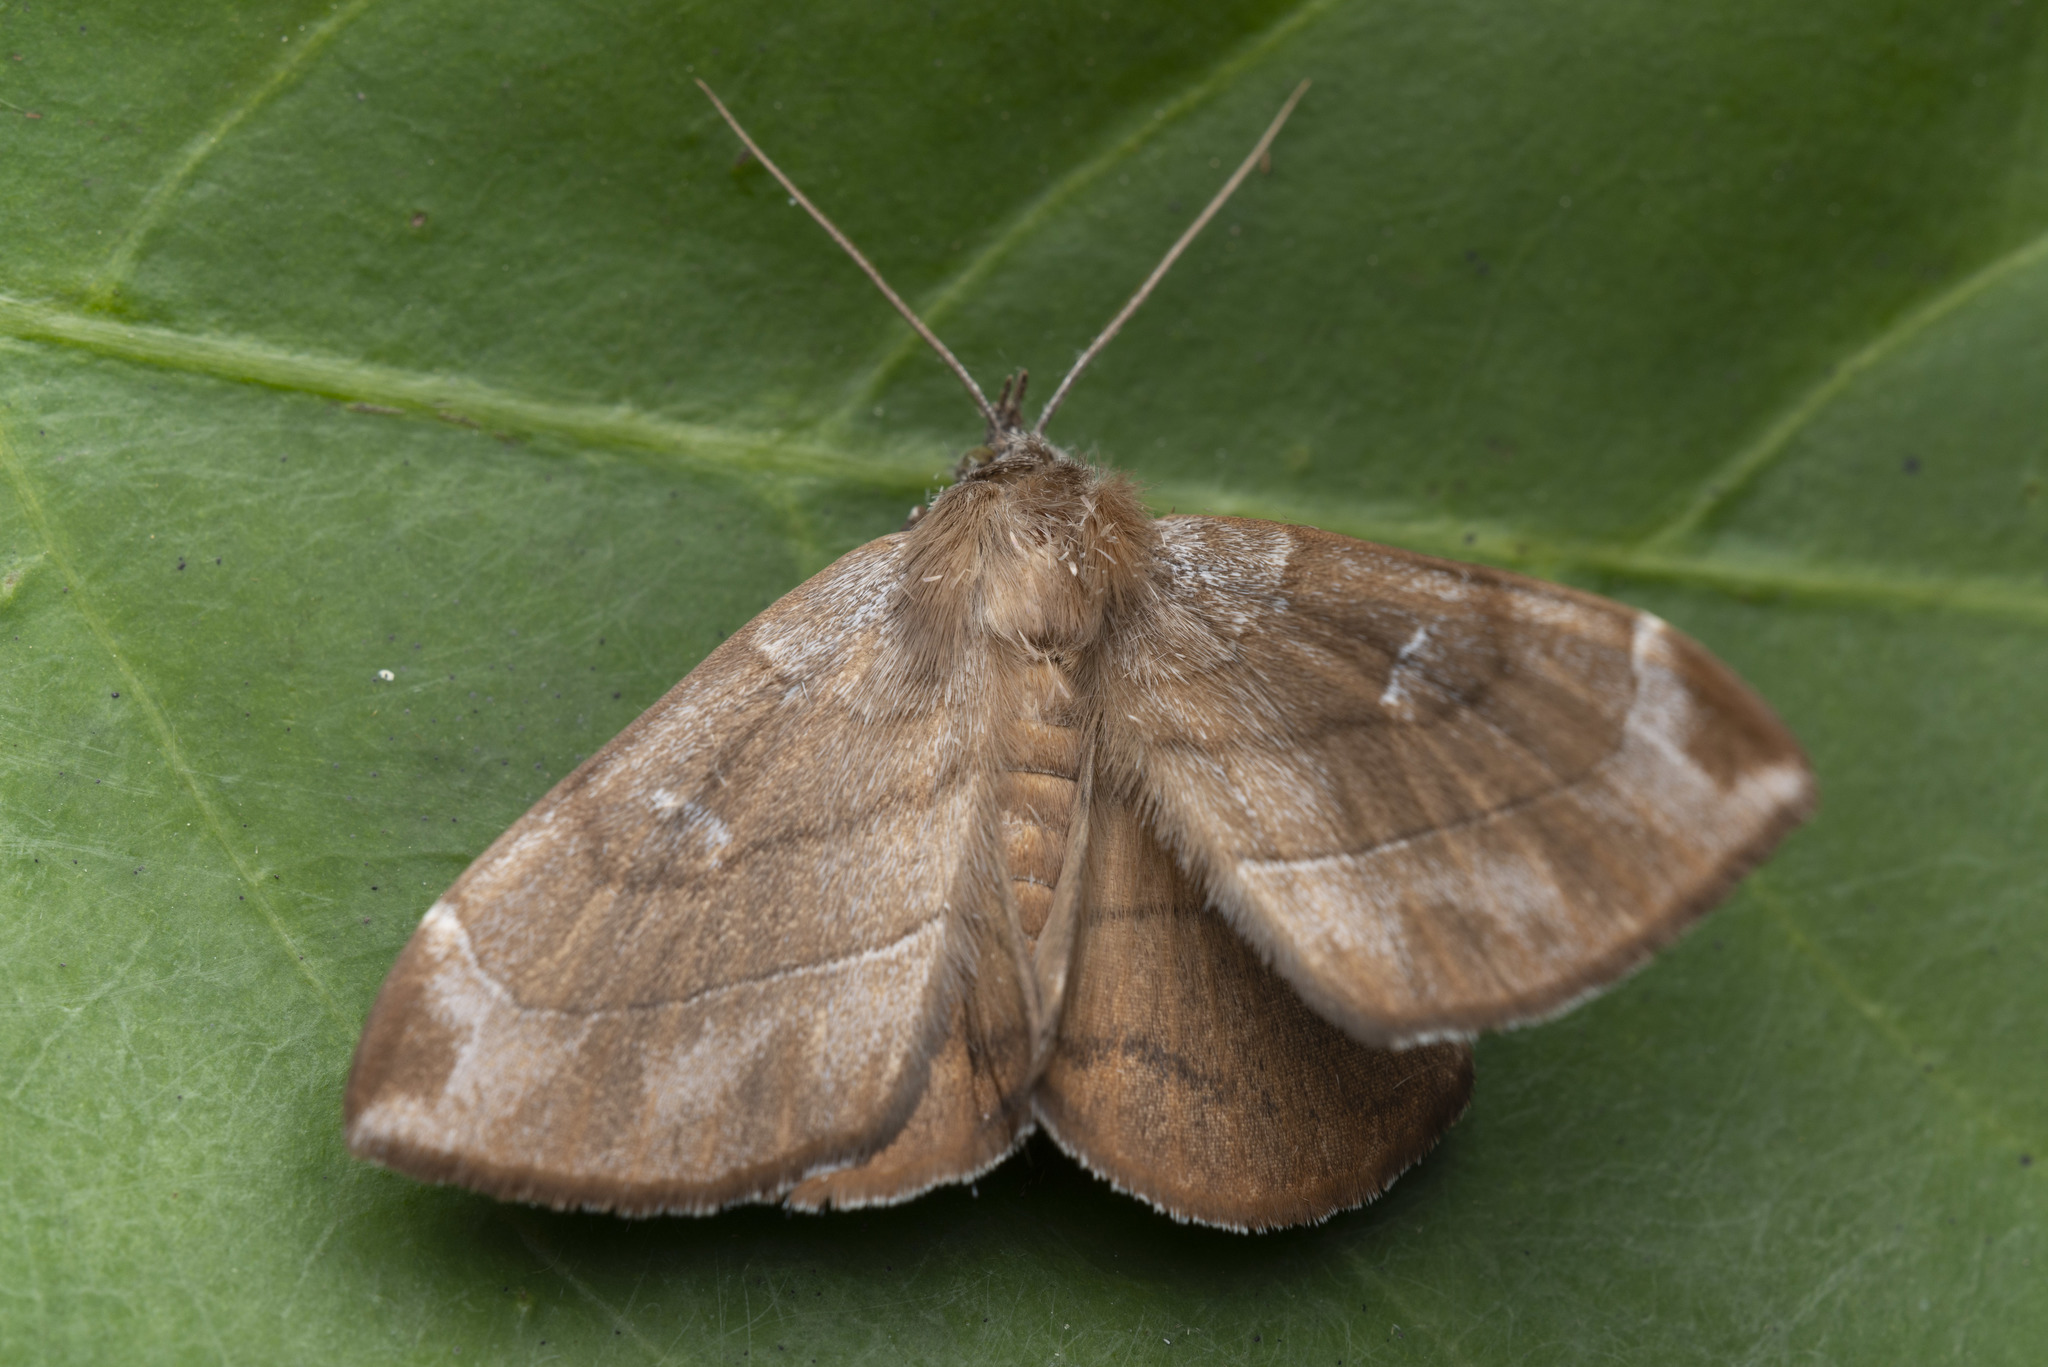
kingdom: Animalia
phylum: Arthropoda
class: Insecta
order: Lepidoptera
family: Erebidae
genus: Taviodes
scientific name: Taviodes fulvescens
